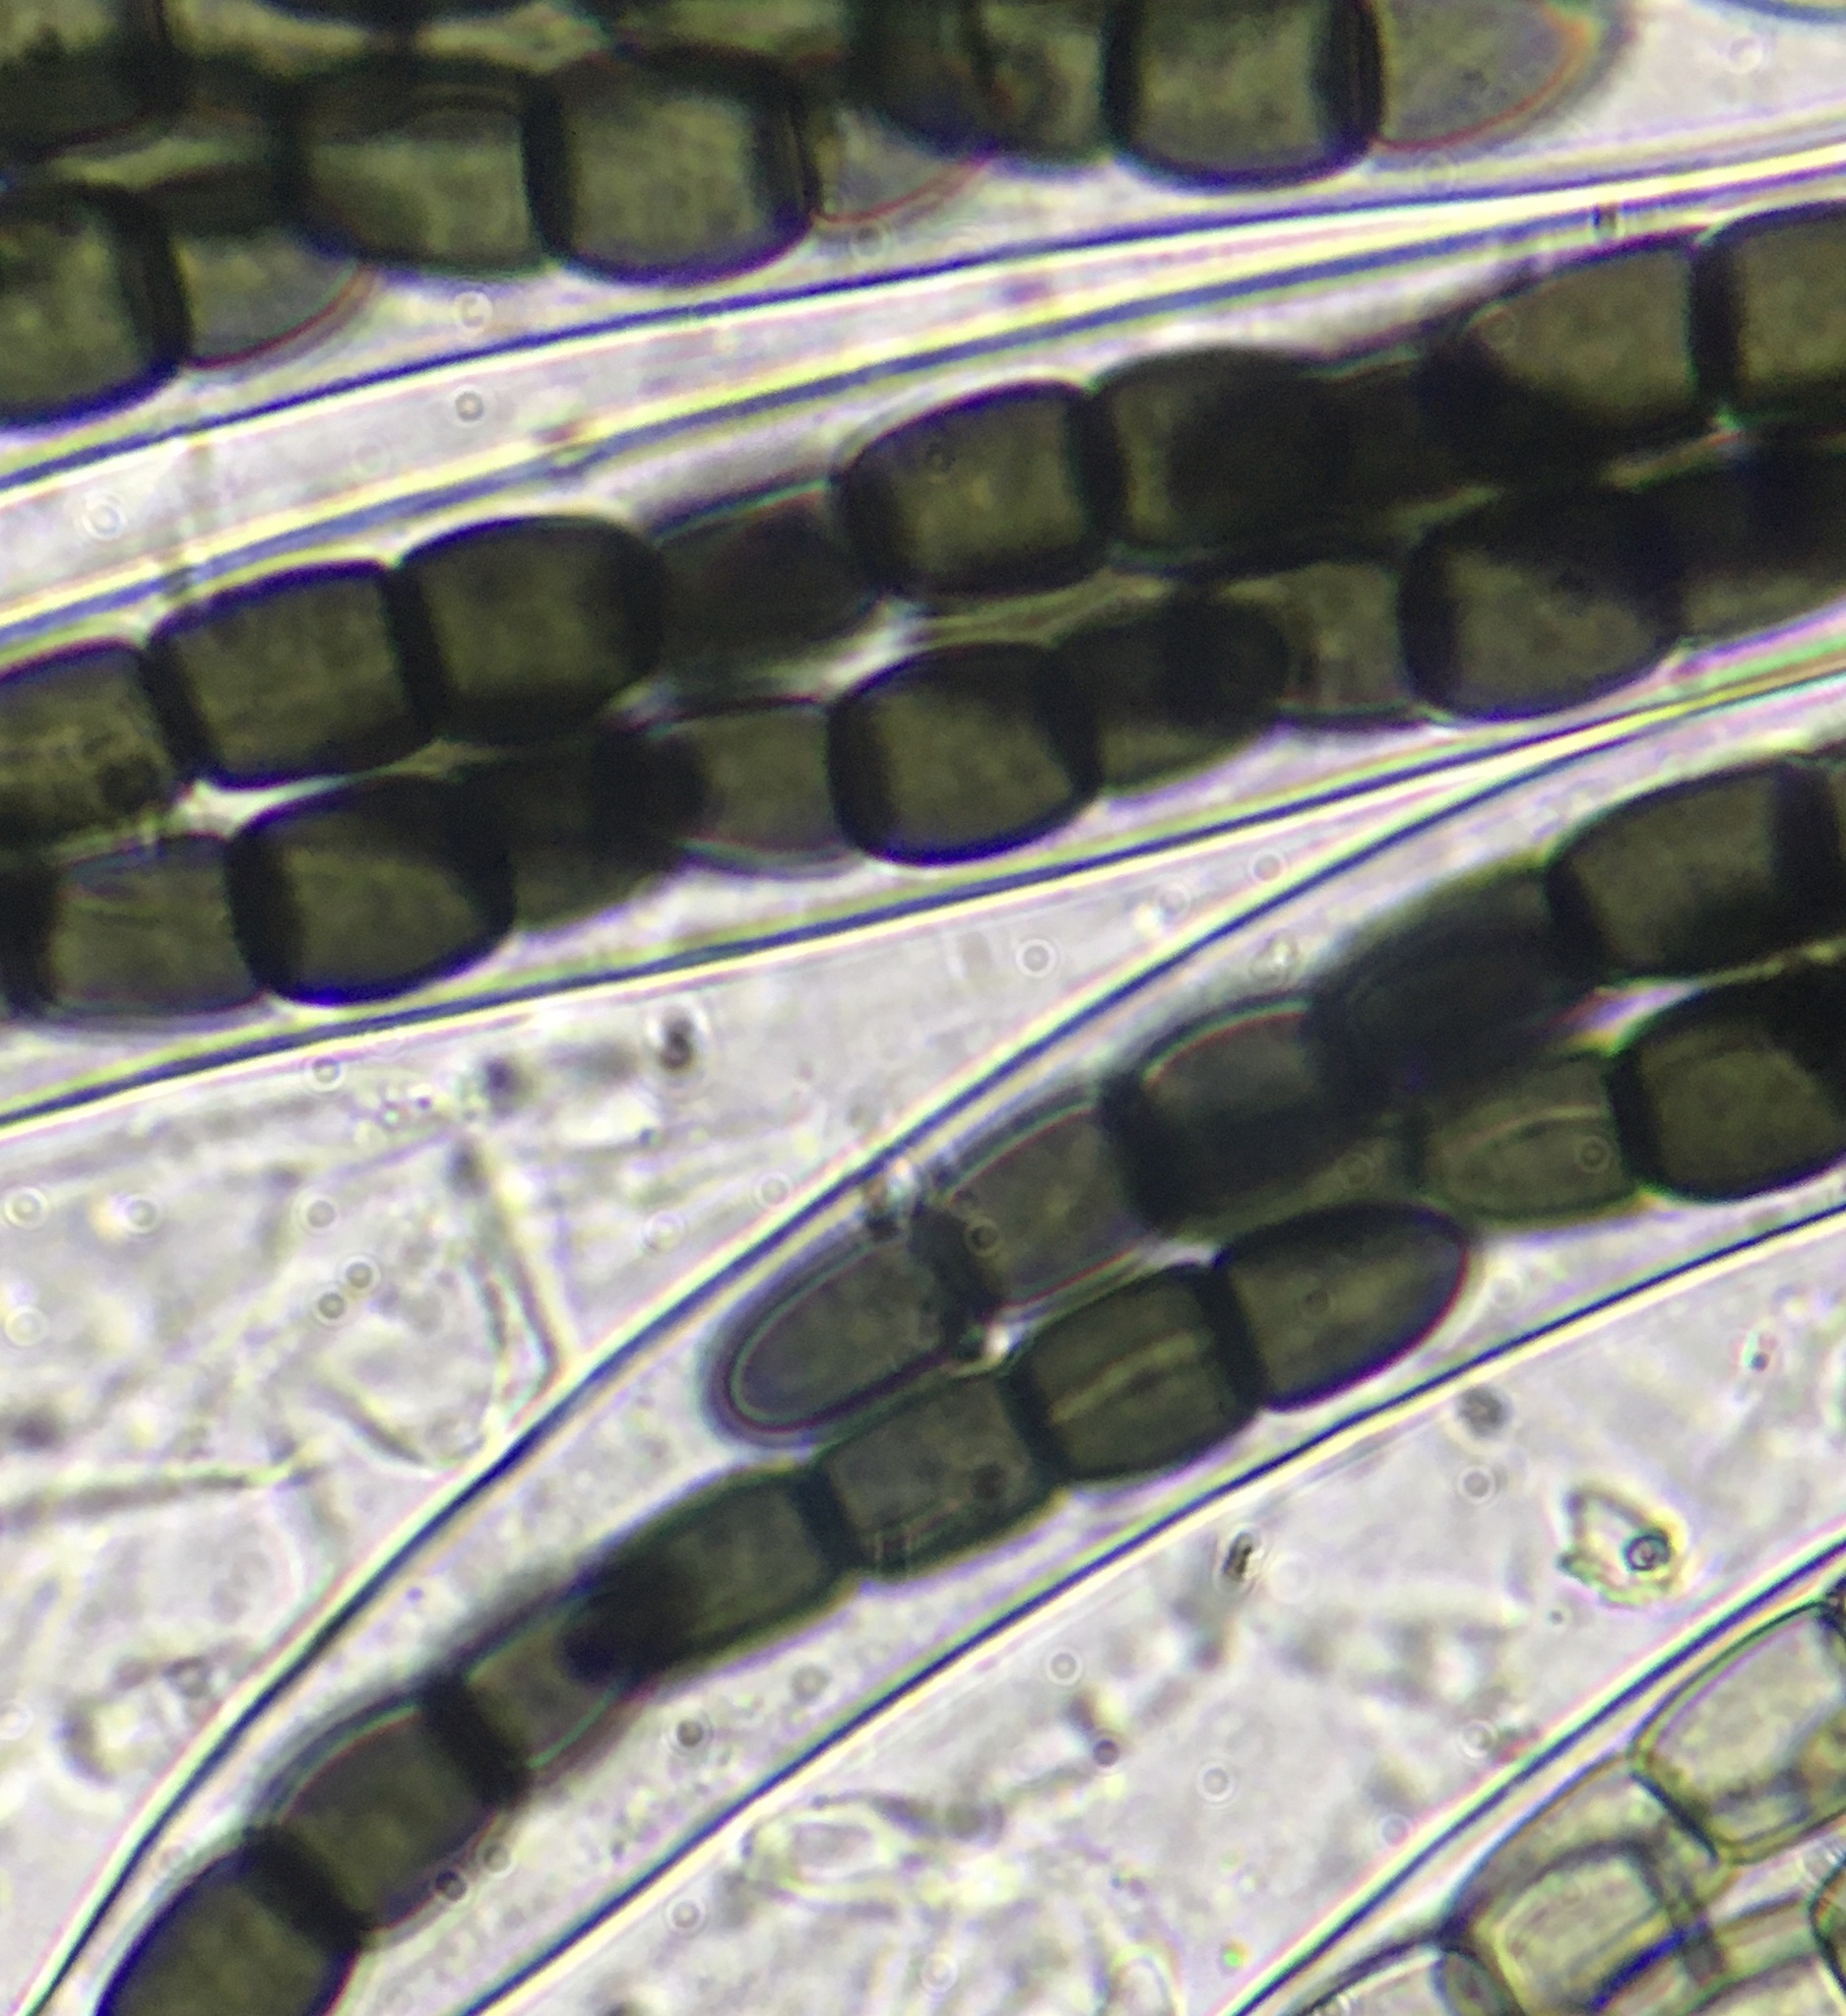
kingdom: Fungi
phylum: Ascomycota
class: Dothideomycetes
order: Pleosporales
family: Sporormiaceae
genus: Preussia
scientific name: Preussia dubia
